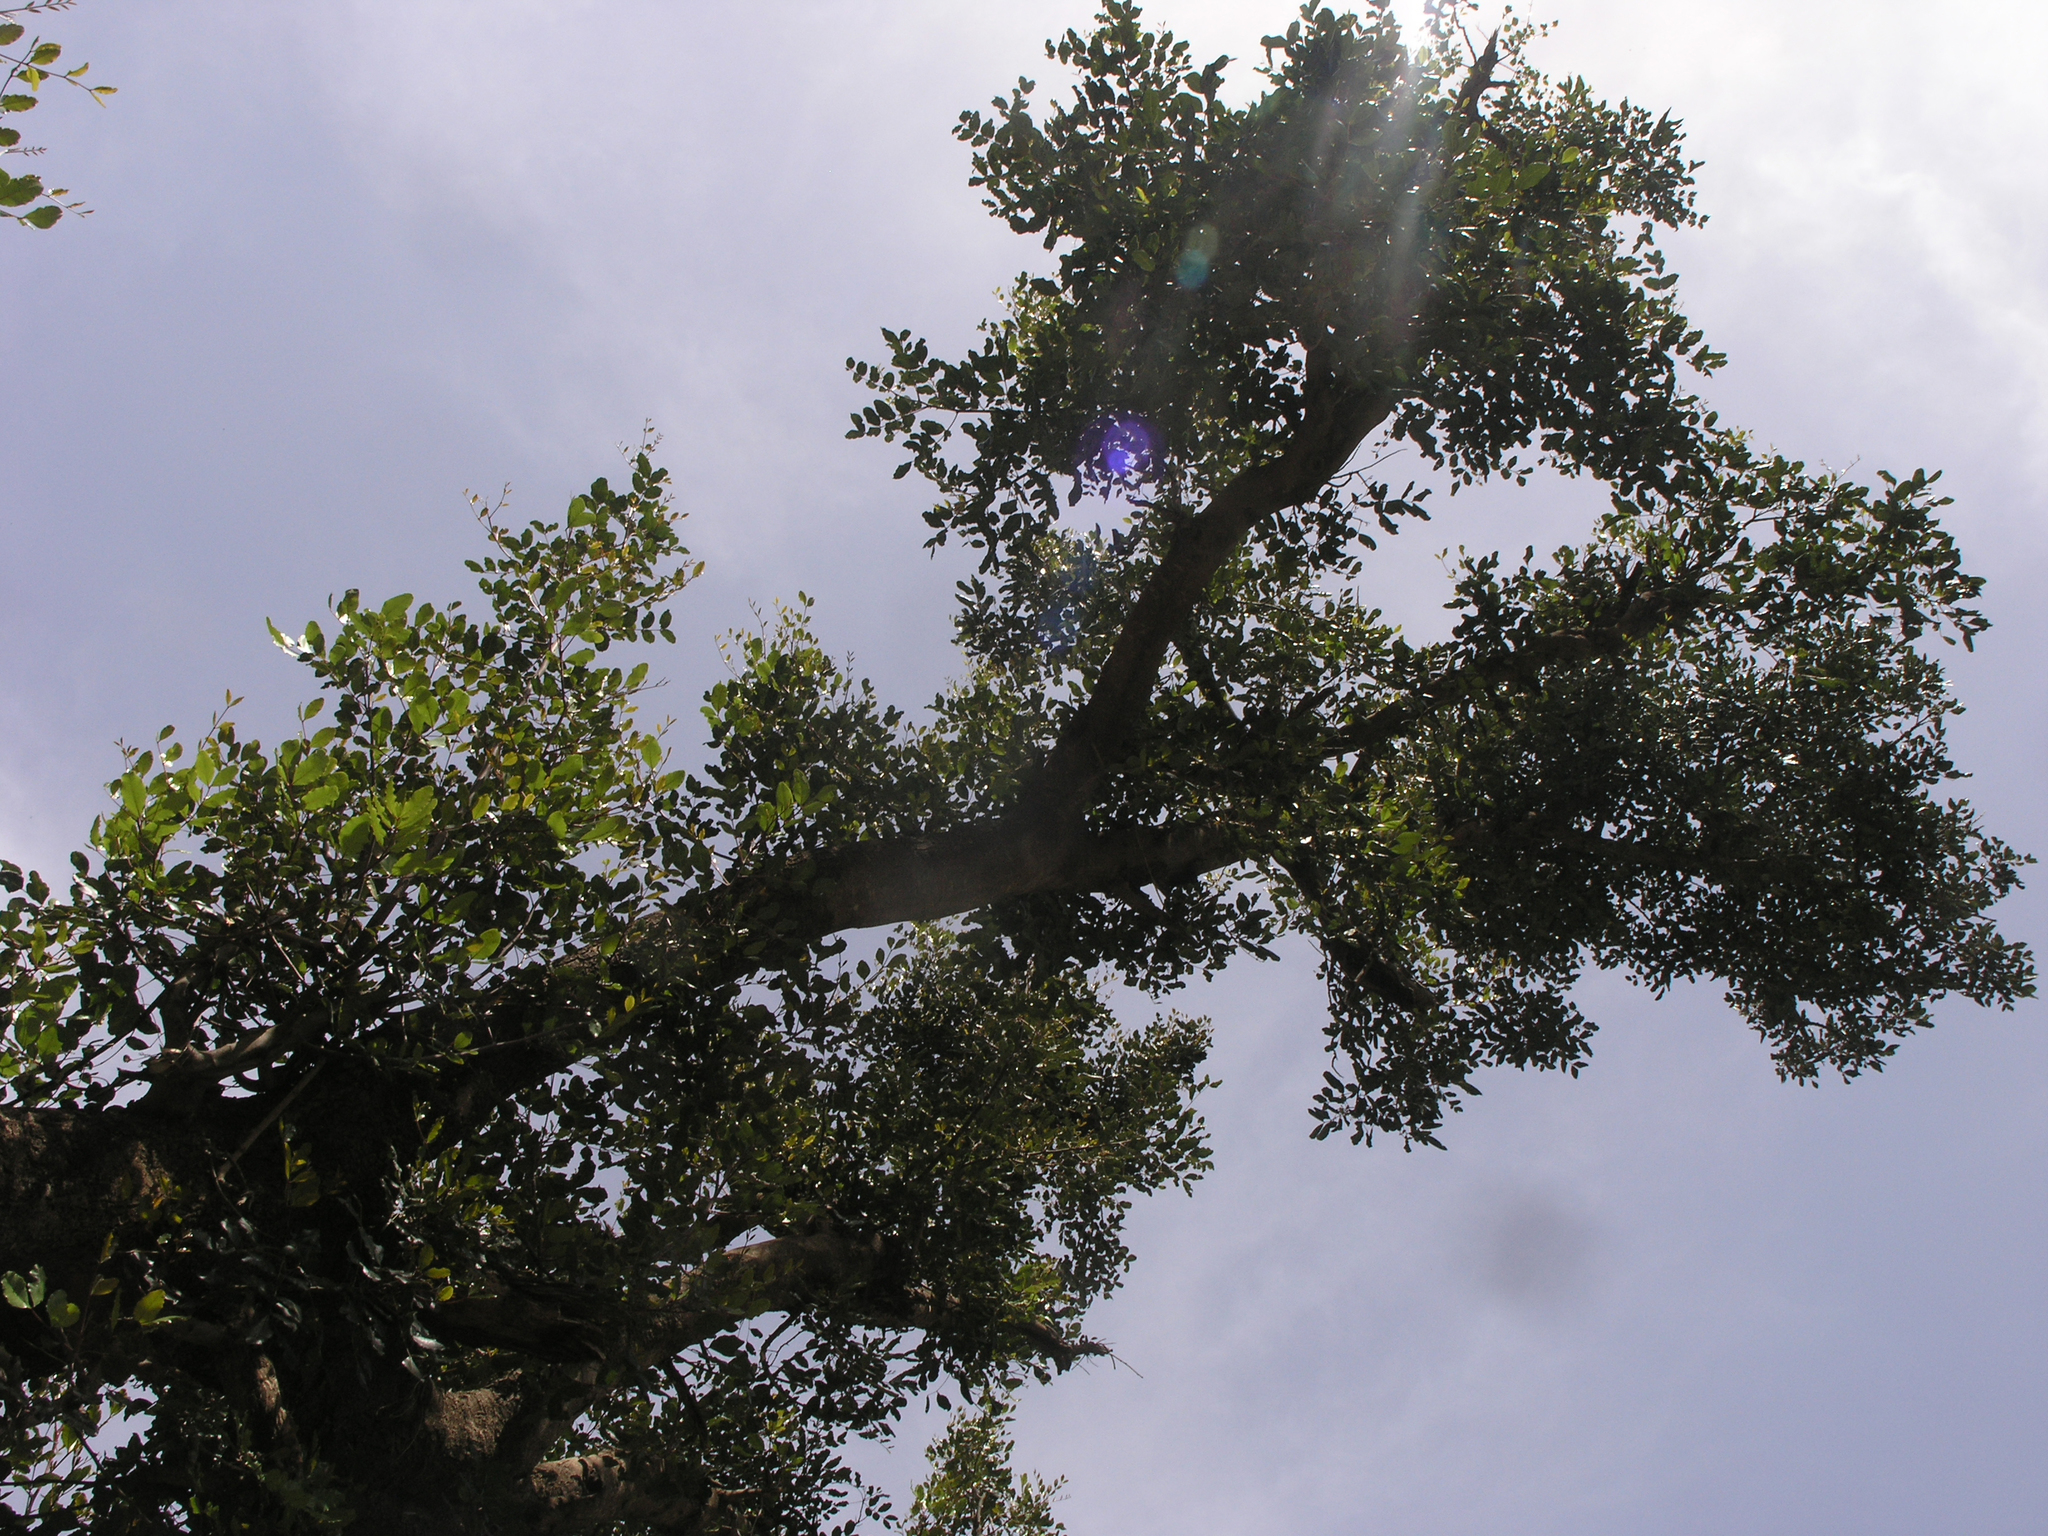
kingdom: Plantae
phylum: Tracheophyta
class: Magnoliopsida
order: Fabales
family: Fabaceae
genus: Ceratonia
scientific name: Ceratonia siliqua
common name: Carob
